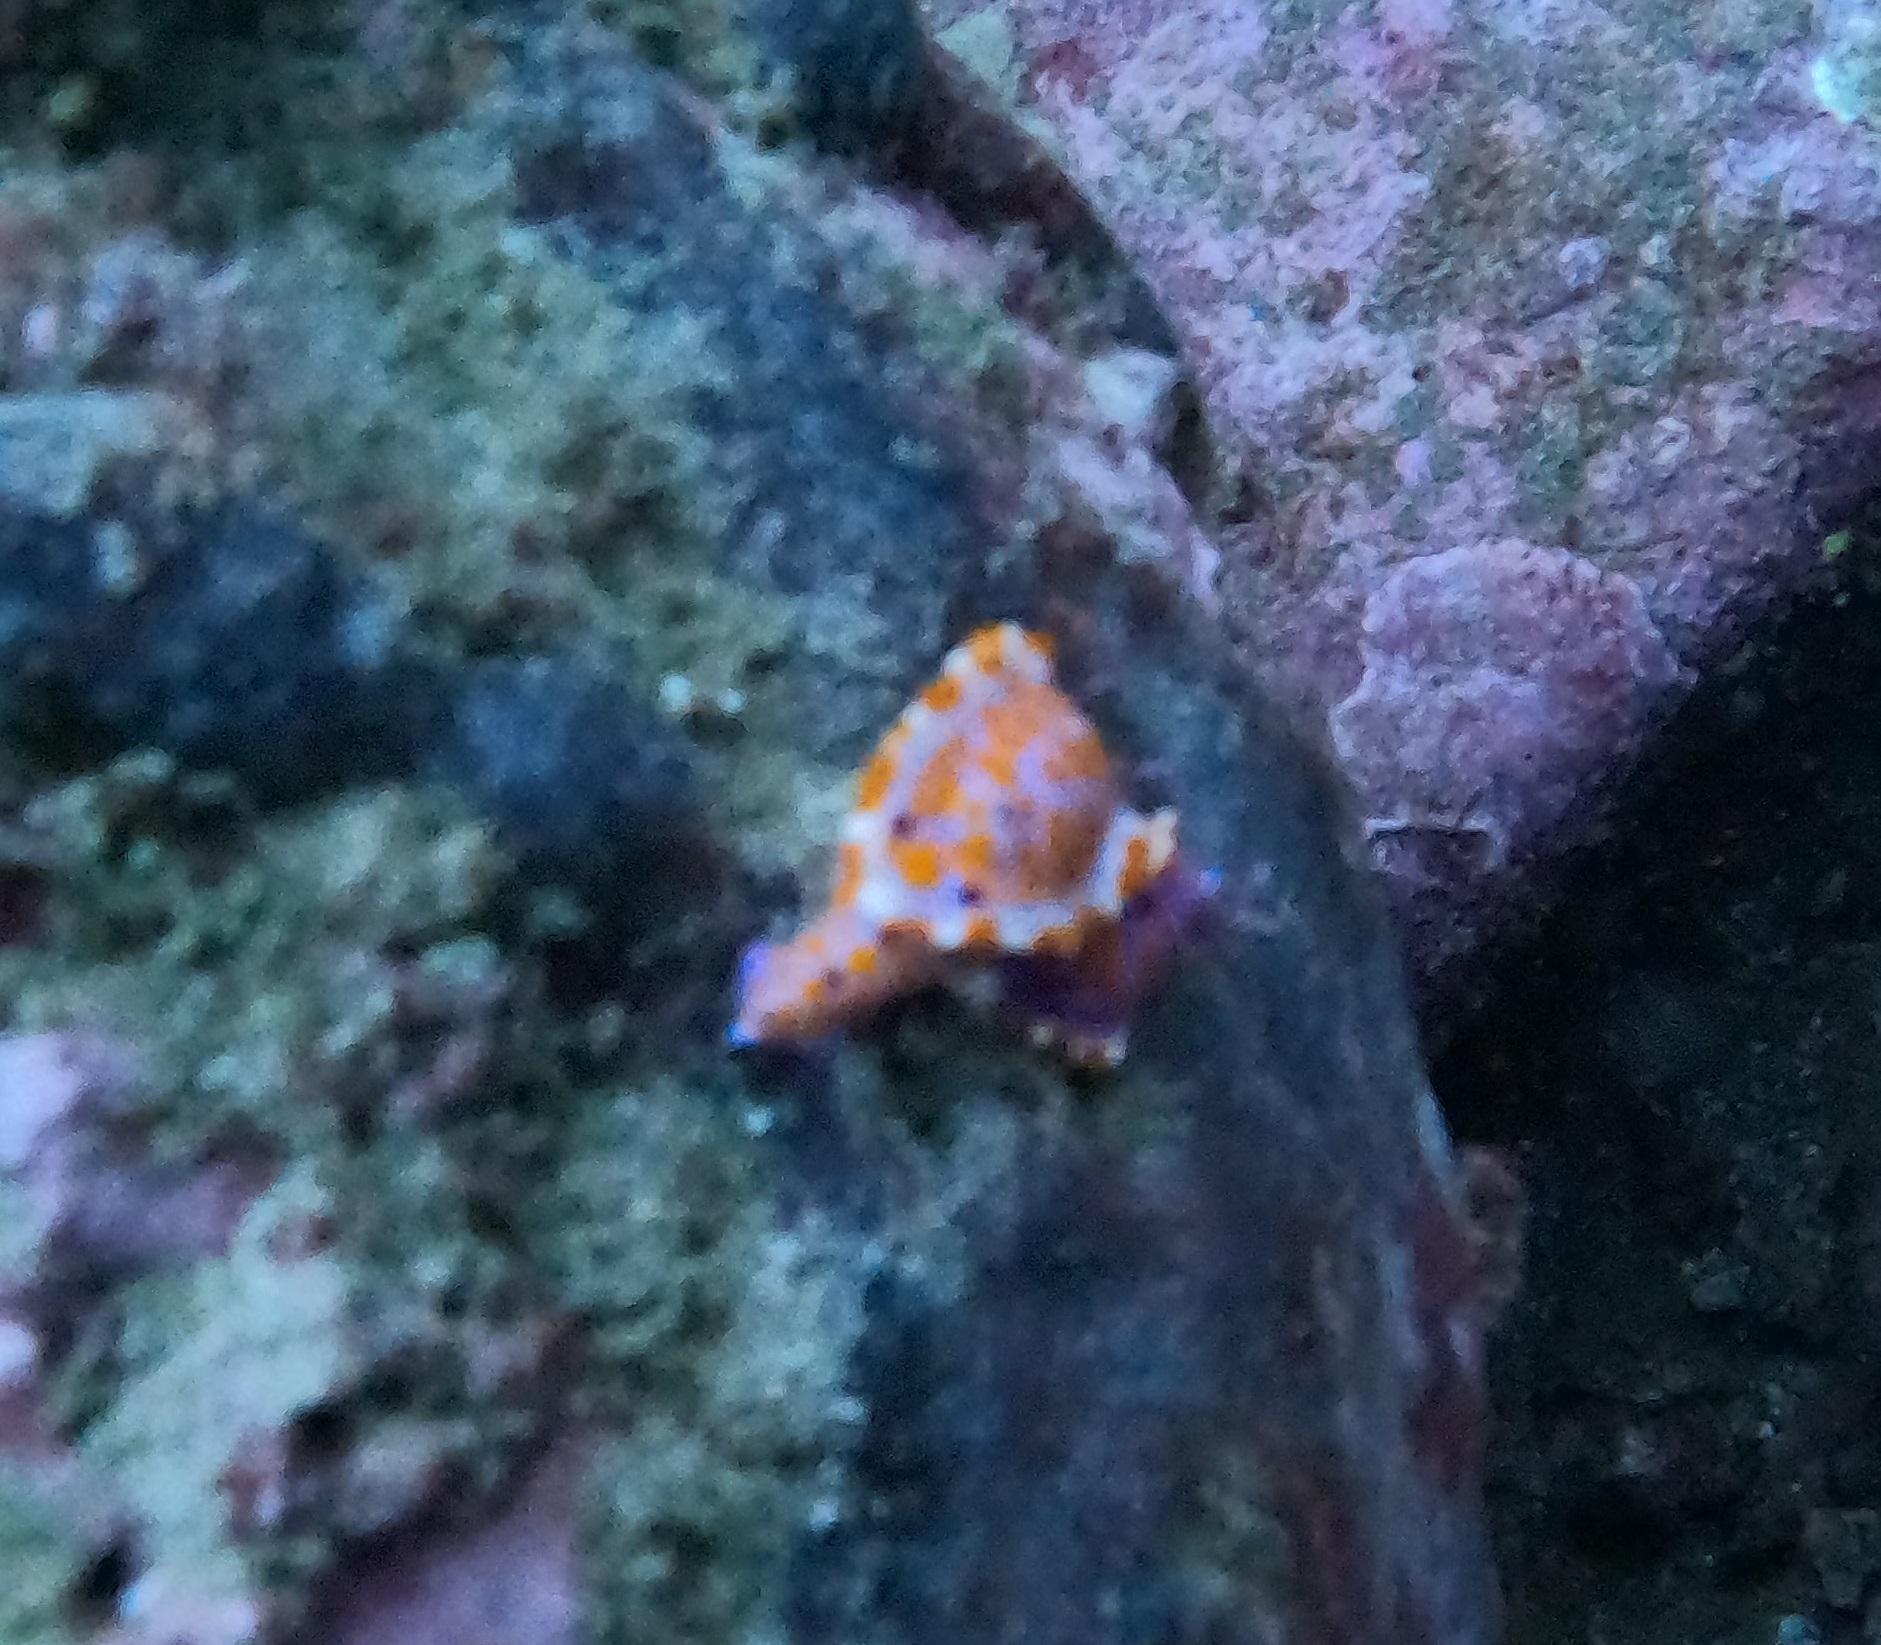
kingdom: Animalia
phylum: Mollusca
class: Gastropoda
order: Nudibranchia
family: Chromodorididae
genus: Ceratosoma
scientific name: Ceratosoma amoenum
